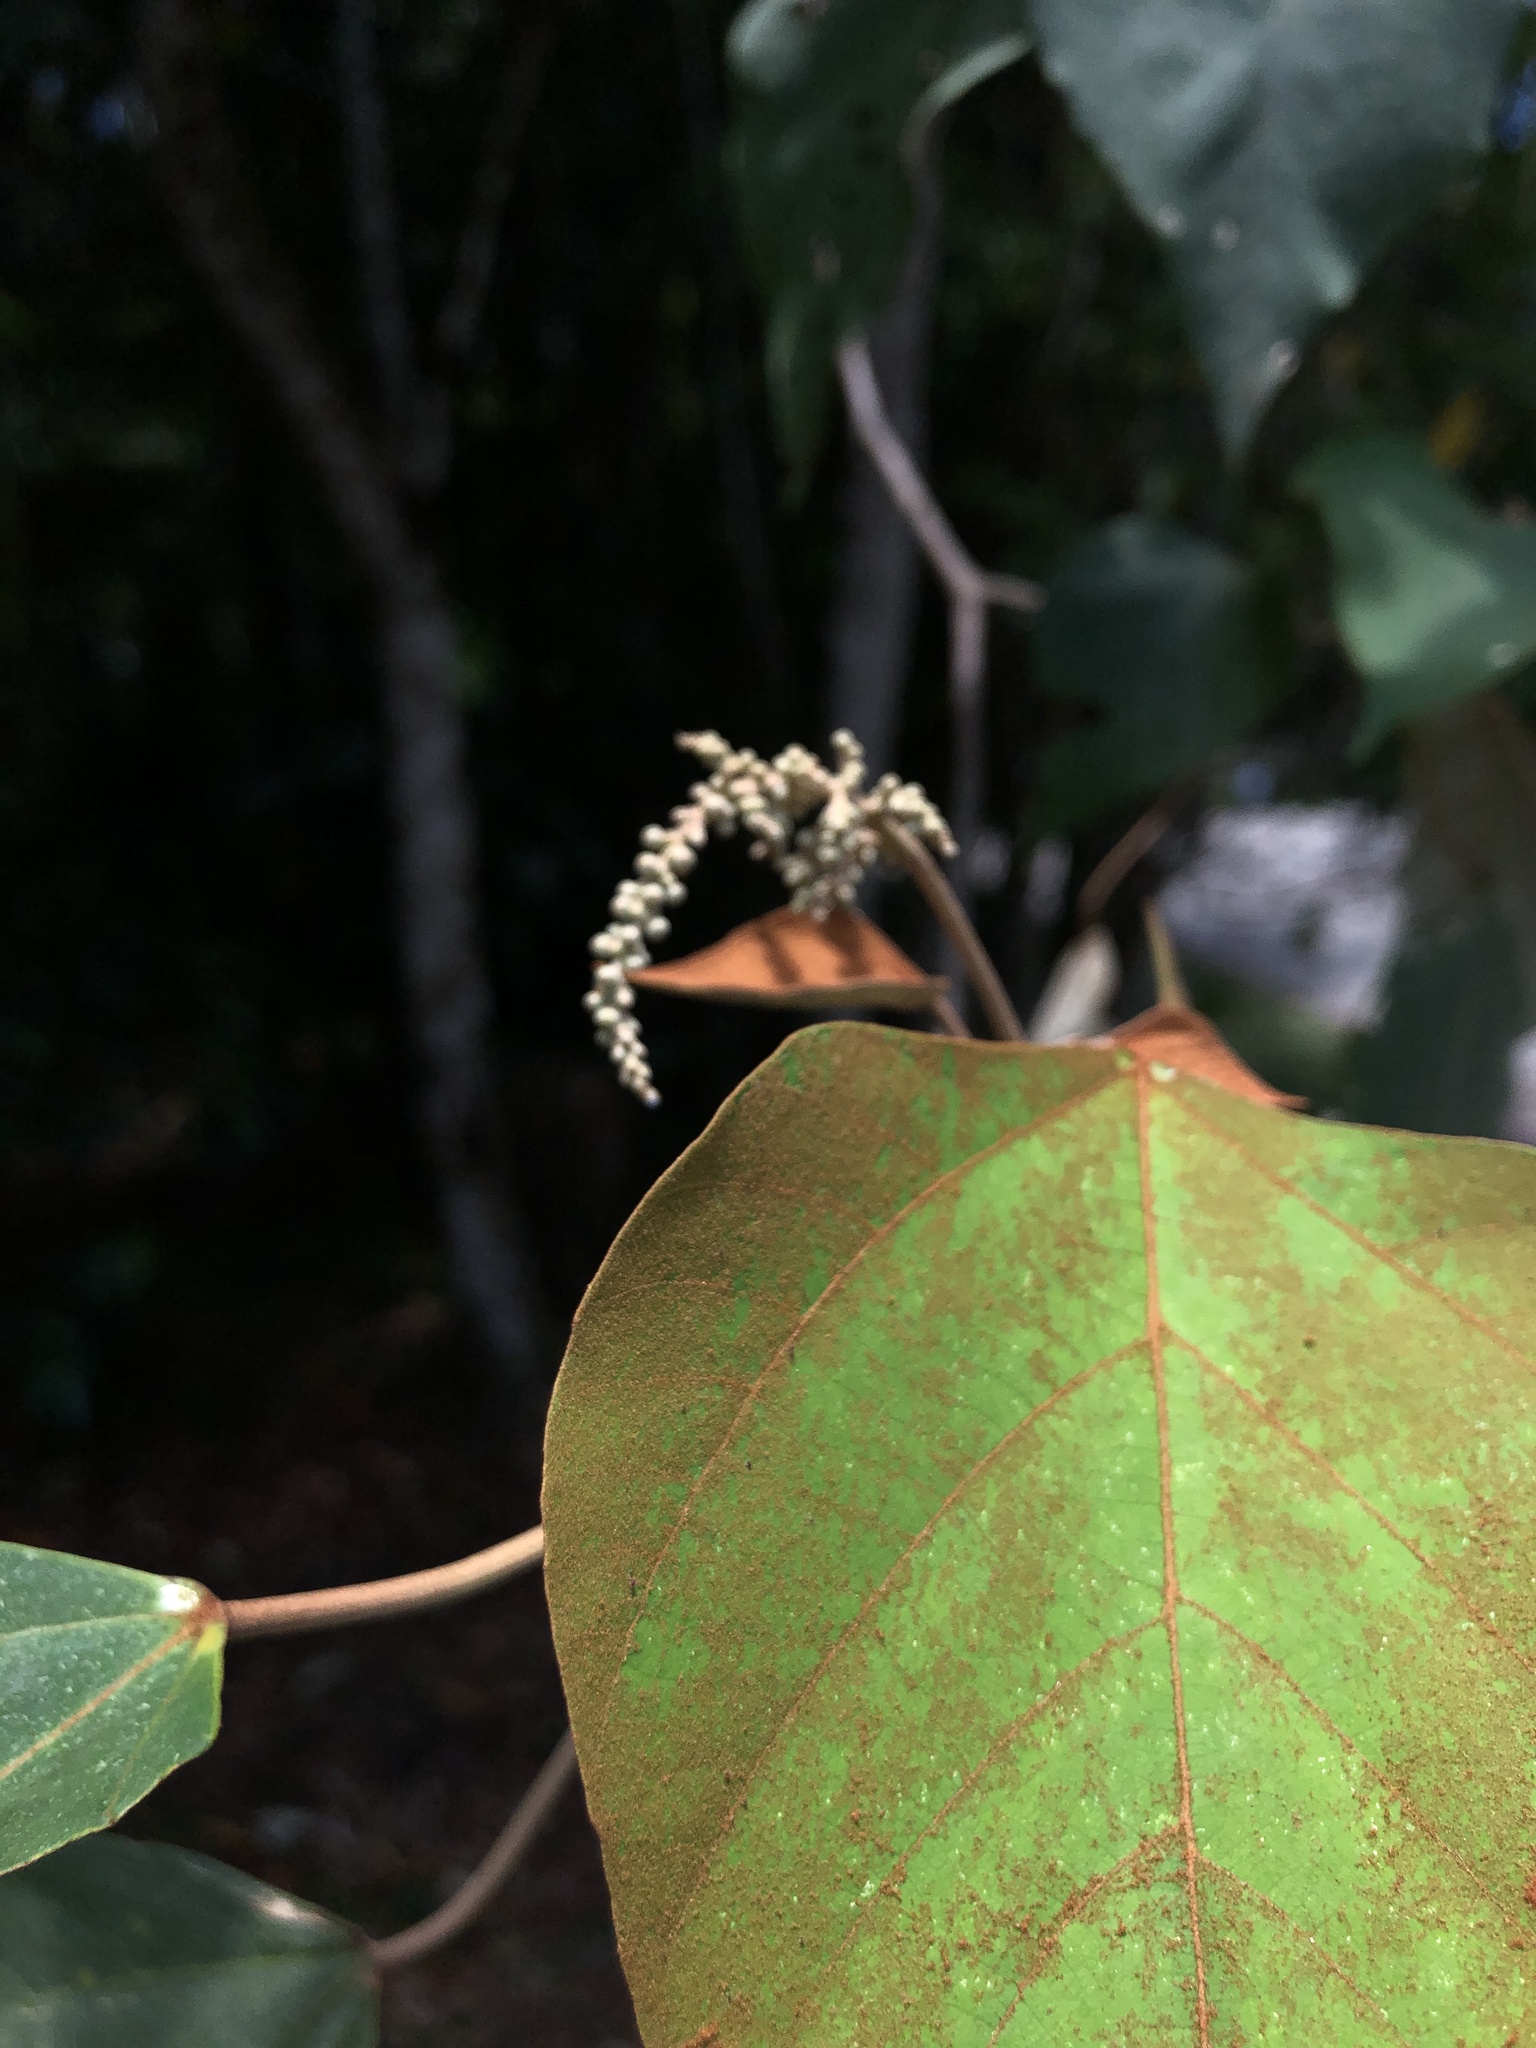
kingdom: Plantae
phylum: Tracheophyta
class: Magnoliopsida
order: Malpighiales
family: Euphorbiaceae
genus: Homalanthus
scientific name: Homalanthus populifolius
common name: Queensland poplar
